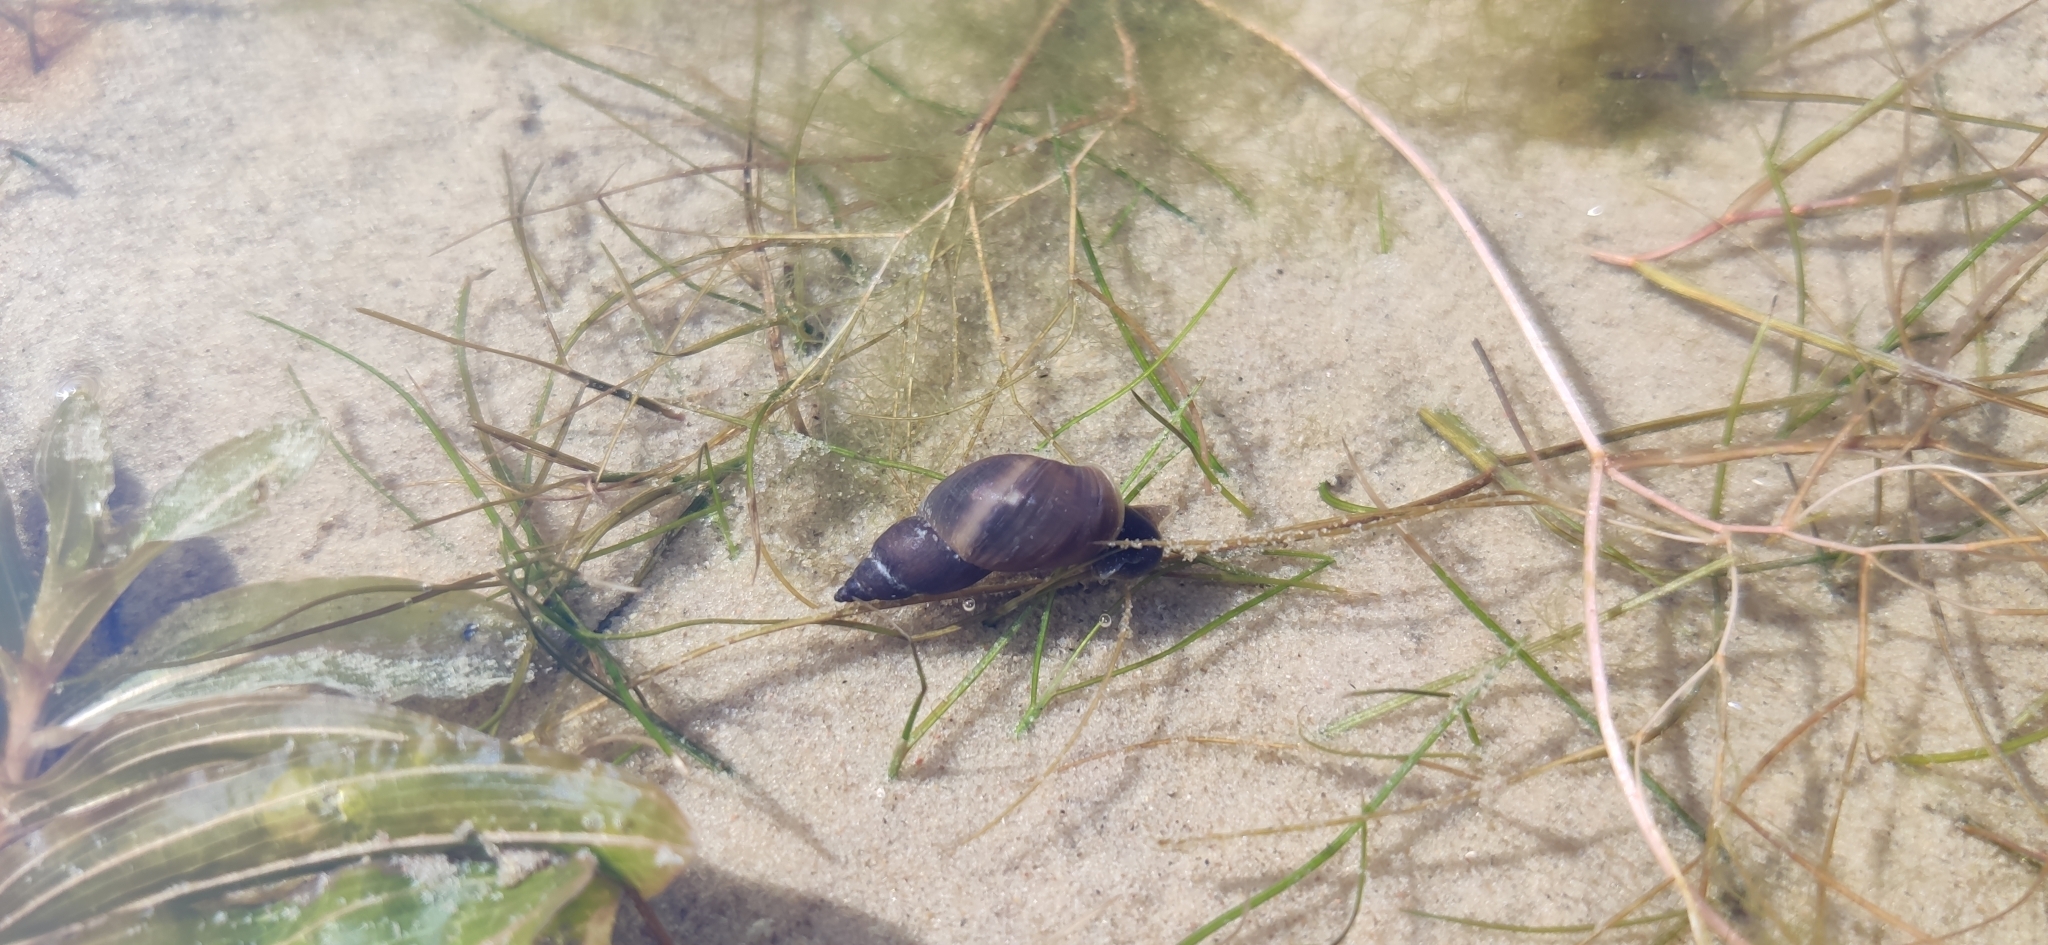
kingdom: Animalia
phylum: Mollusca
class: Gastropoda
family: Lymnaeidae
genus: Lymnaea
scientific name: Lymnaea stagnalis
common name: Great pond snail
